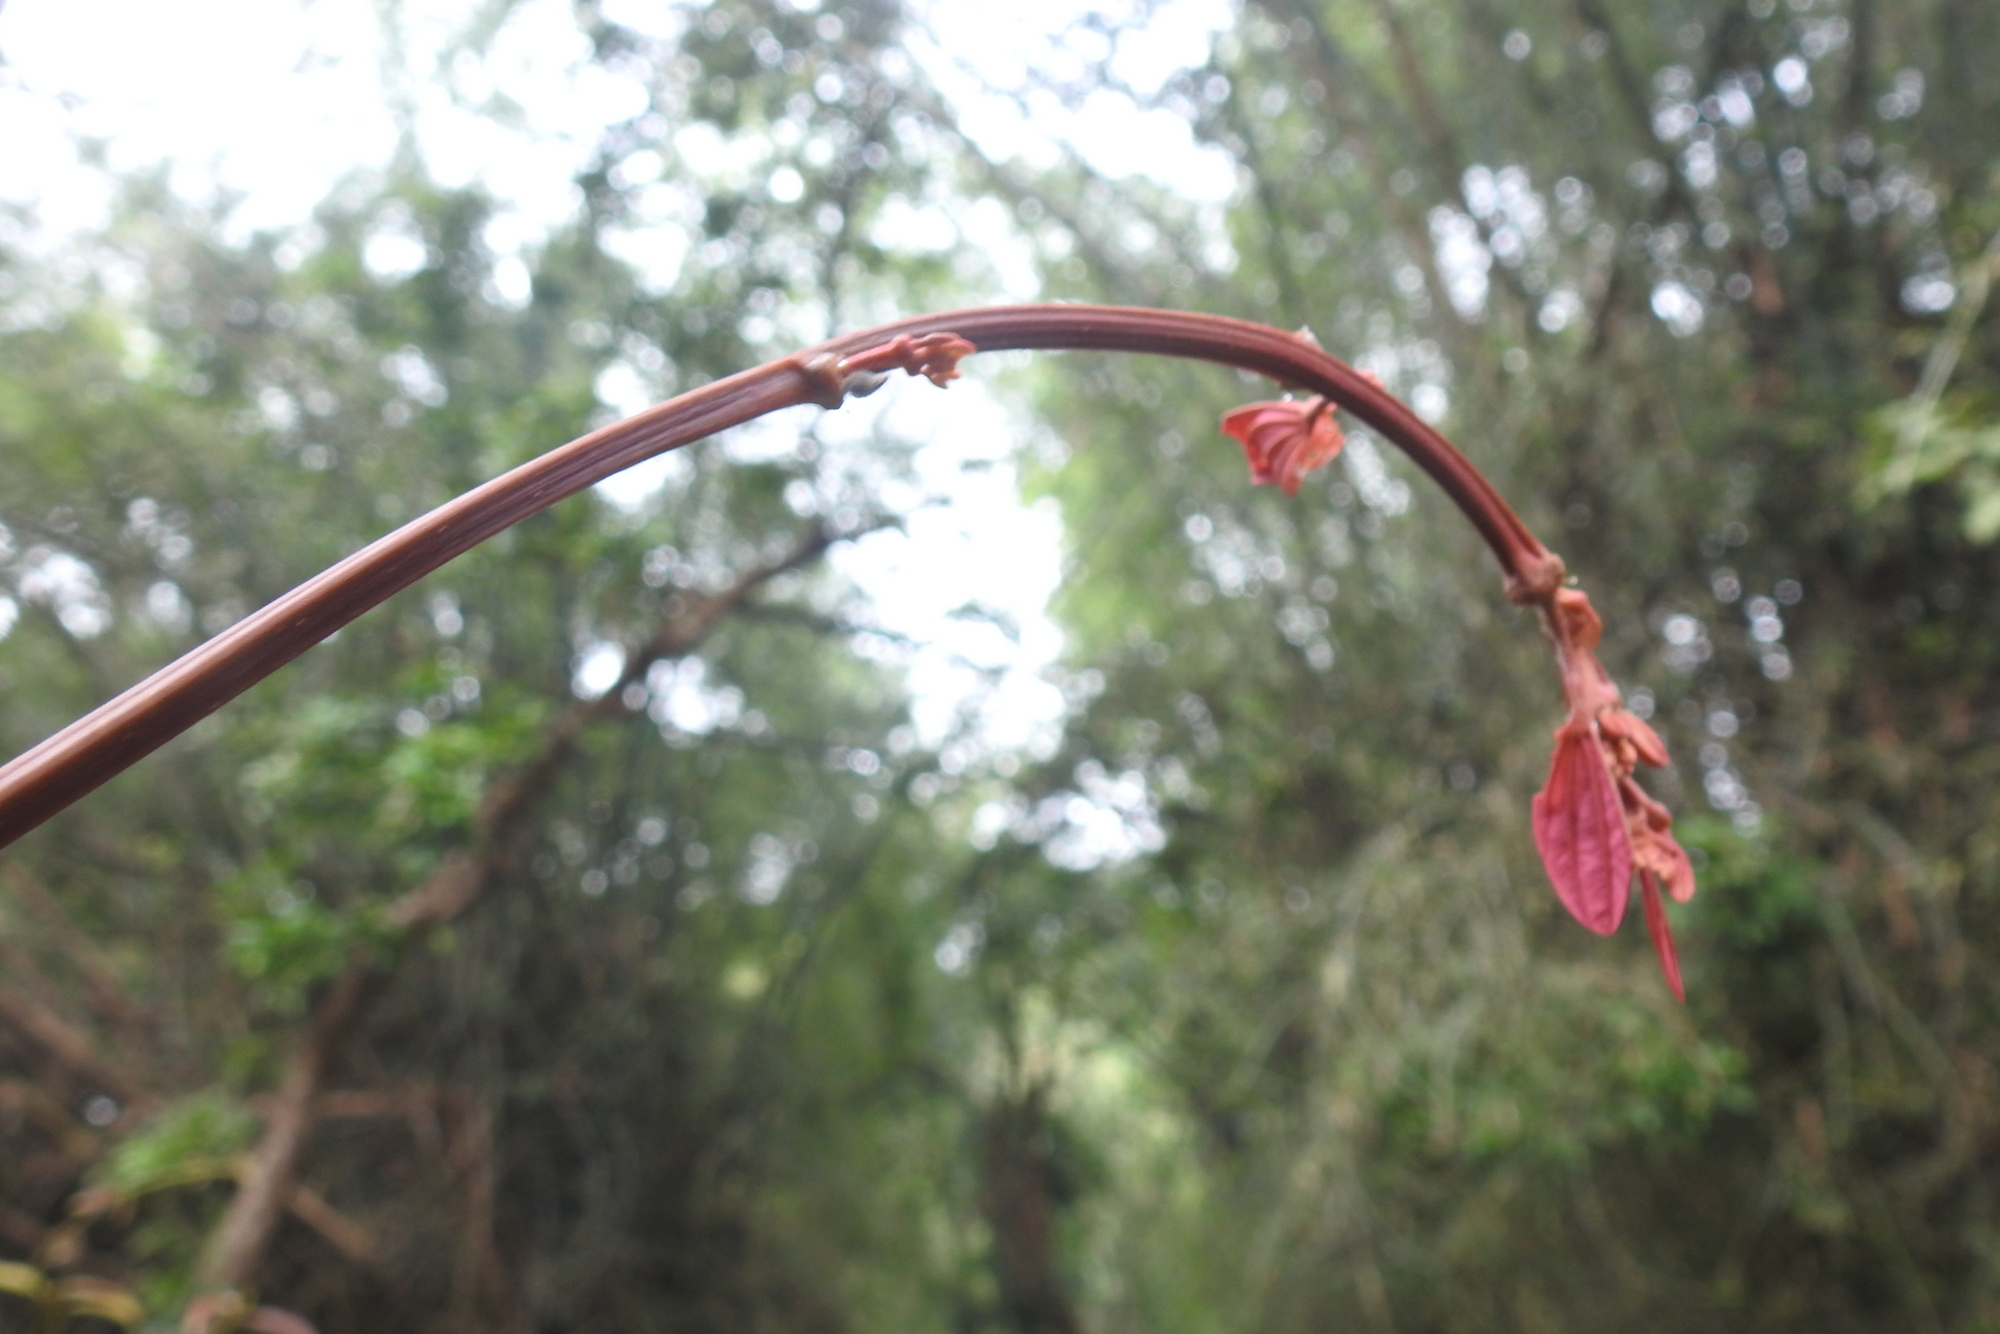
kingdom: Plantae
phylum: Tracheophyta
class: Magnoliopsida
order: Fabales
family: Fabaceae
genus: Bauhinia
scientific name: Bauhinia phoenicea
